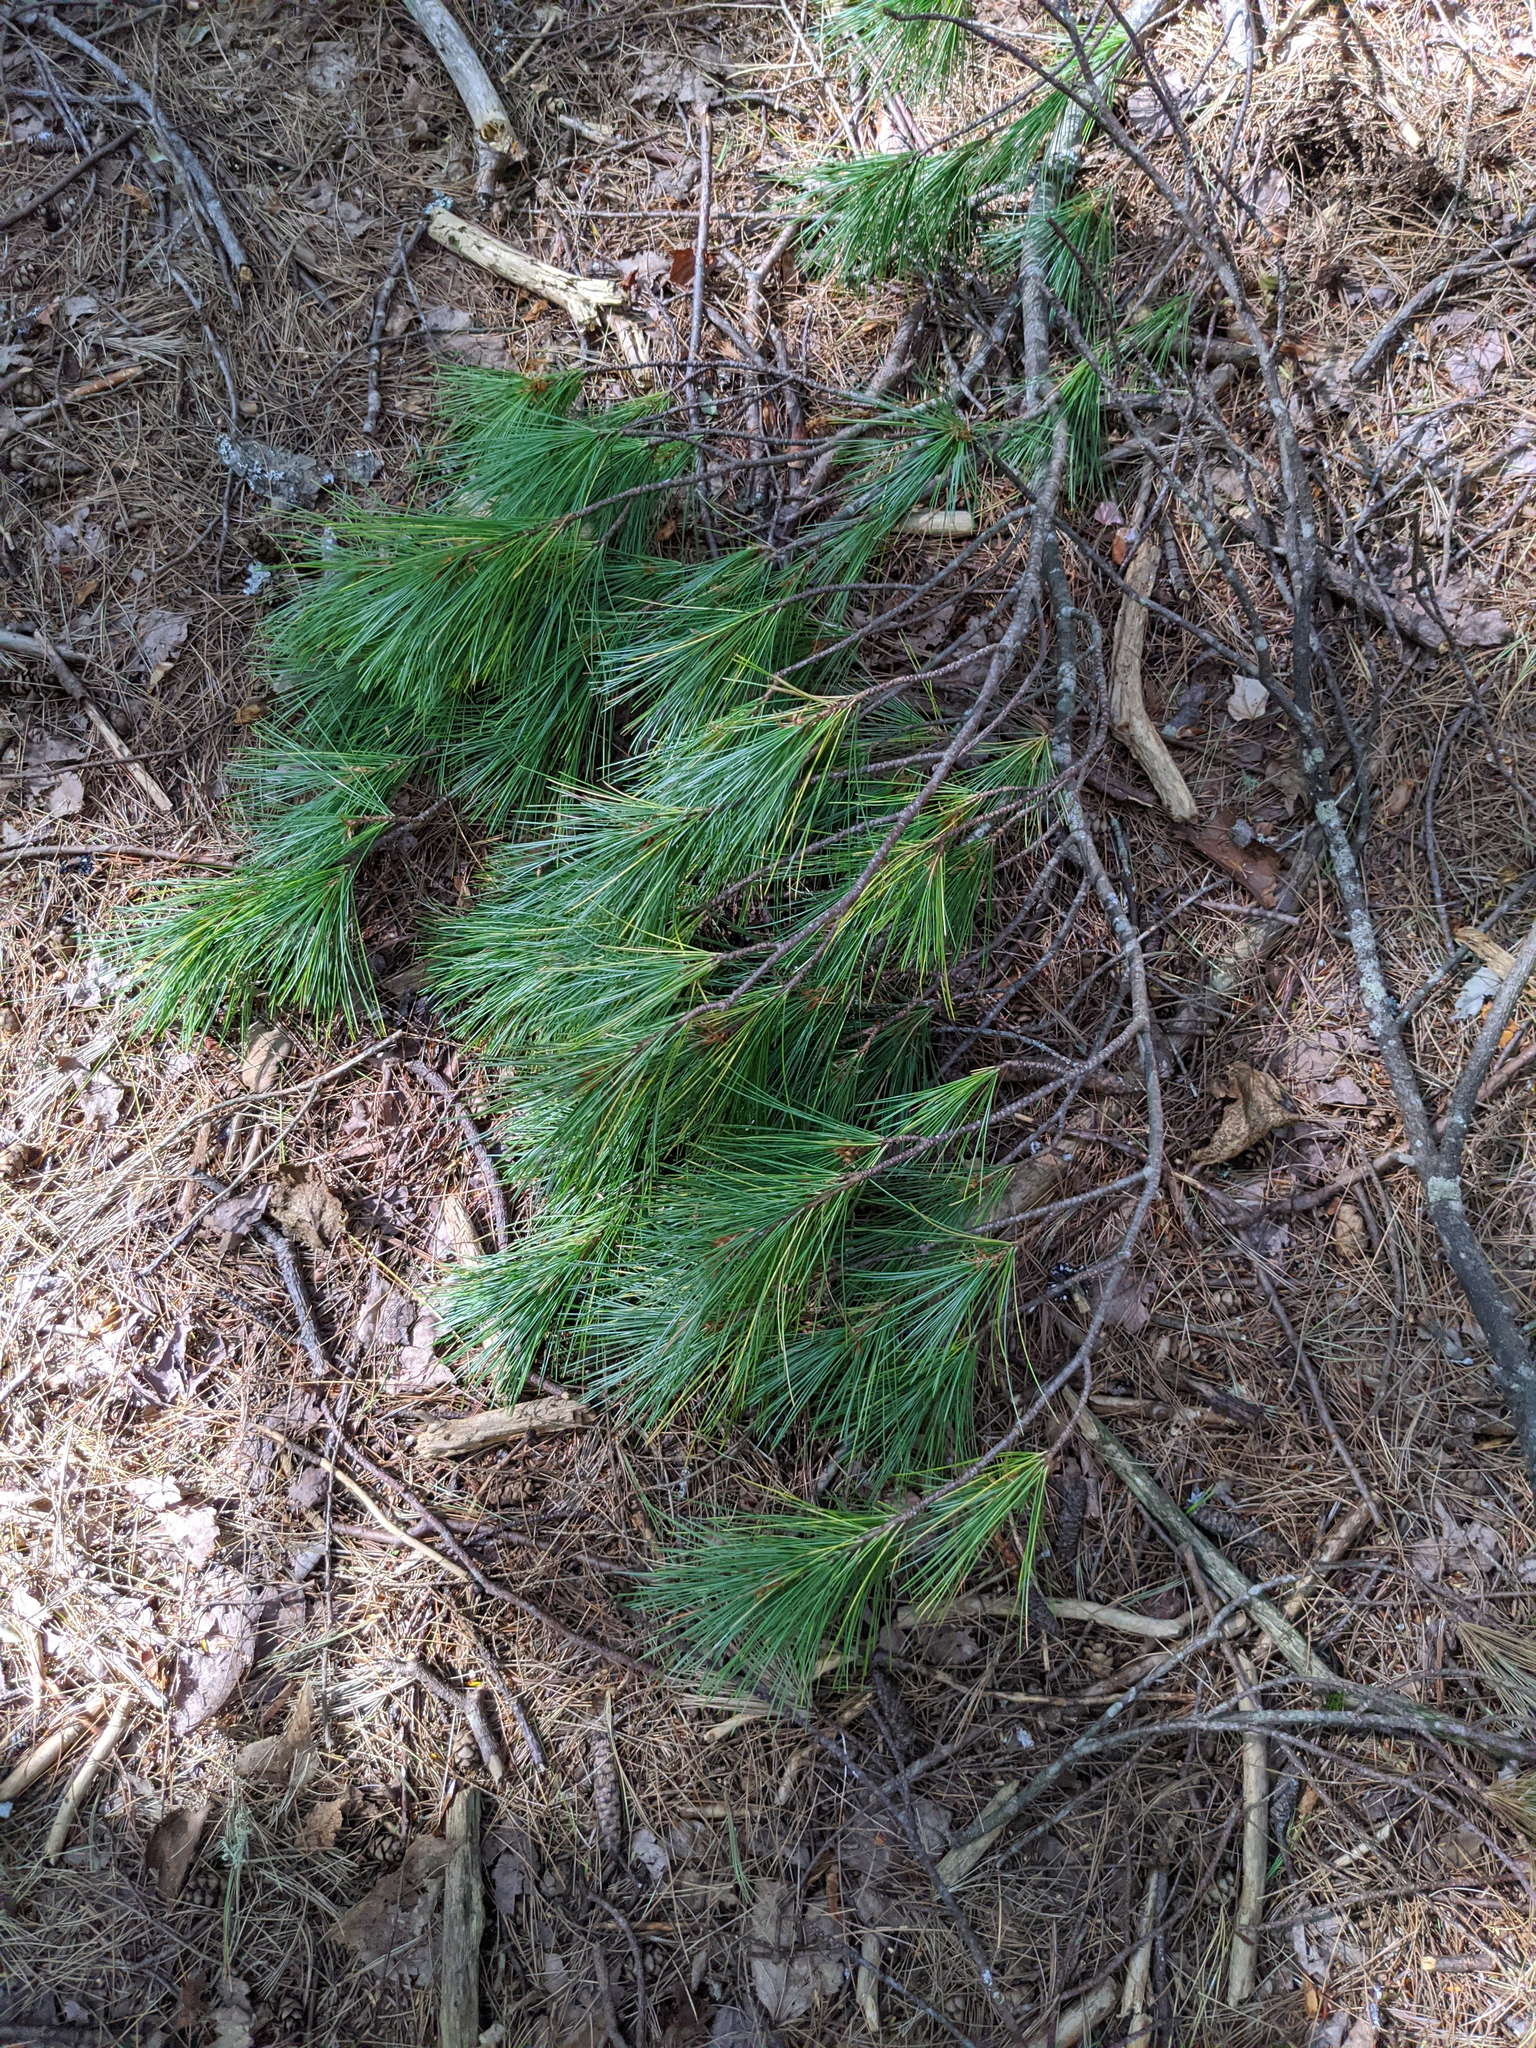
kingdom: Plantae
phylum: Tracheophyta
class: Pinopsida
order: Pinales
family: Pinaceae
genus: Pinus
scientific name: Pinus strobus
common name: Weymouth pine
